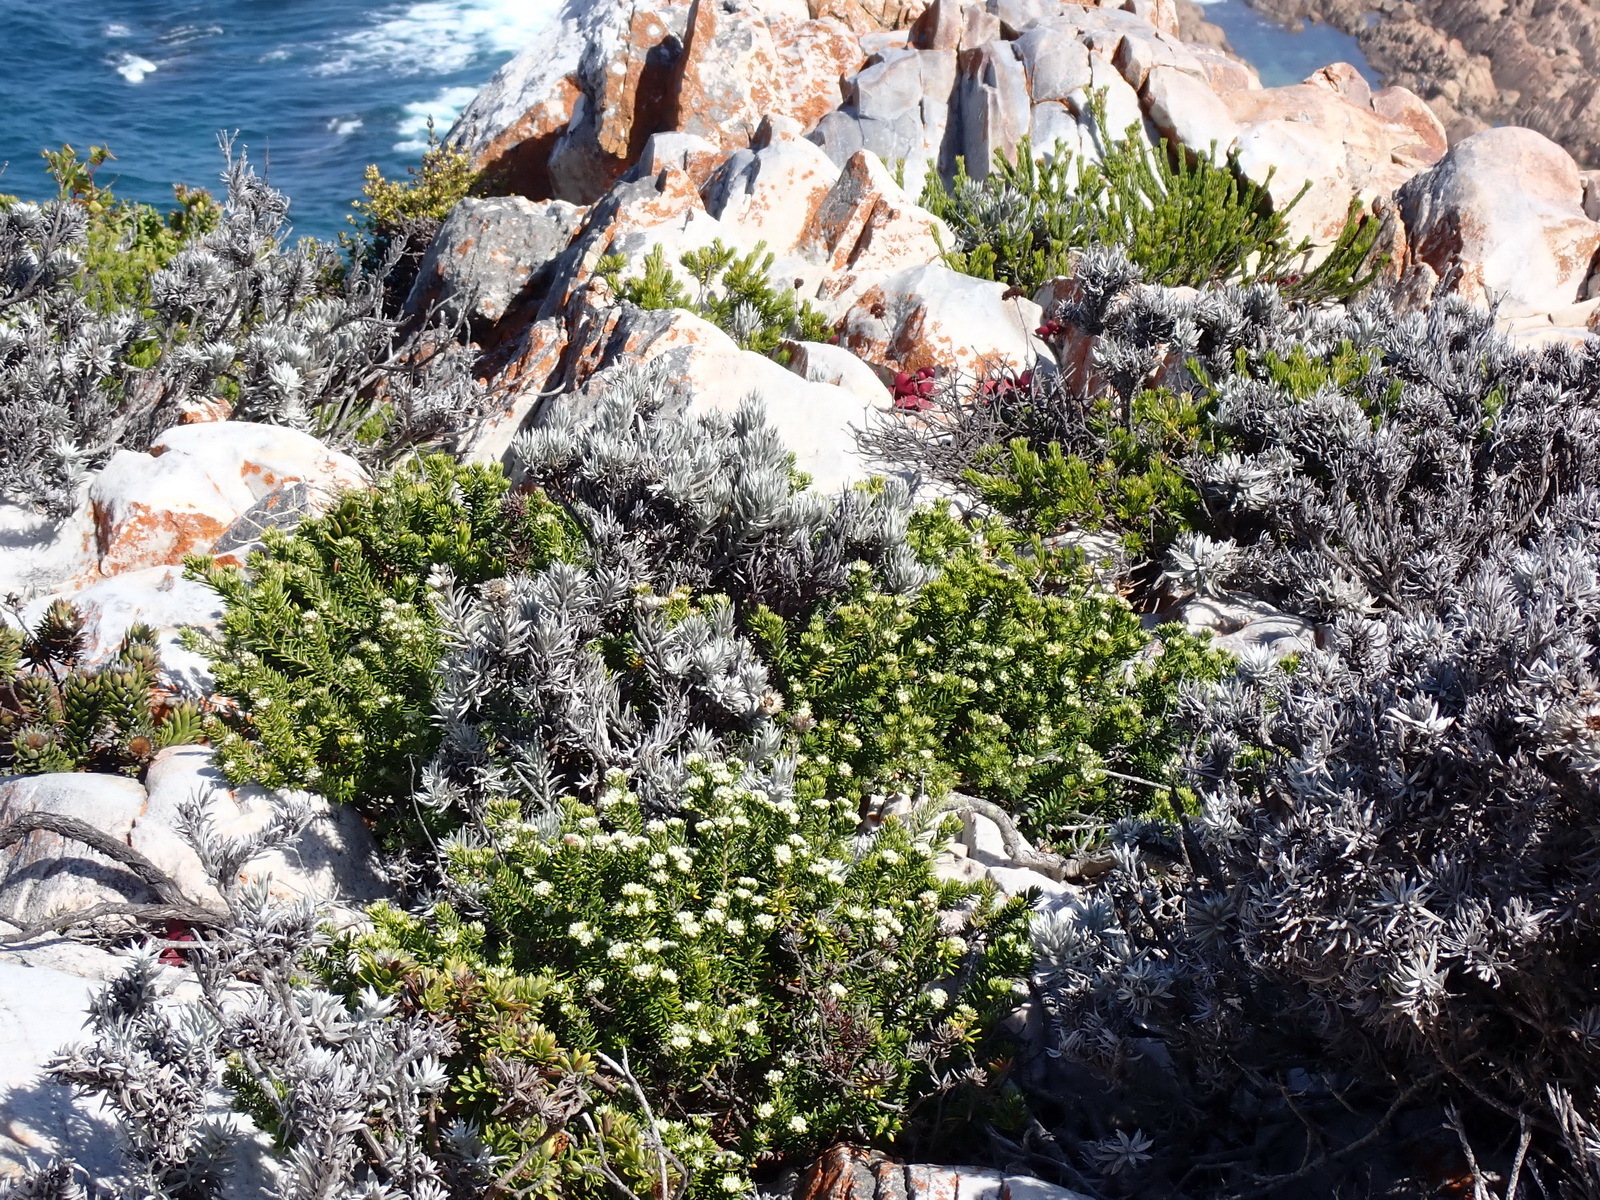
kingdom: Plantae
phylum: Tracheophyta
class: Magnoliopsida
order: Asterales
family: Asteraceae
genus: Achyranthemum
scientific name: Achyranthemum paniculatum
